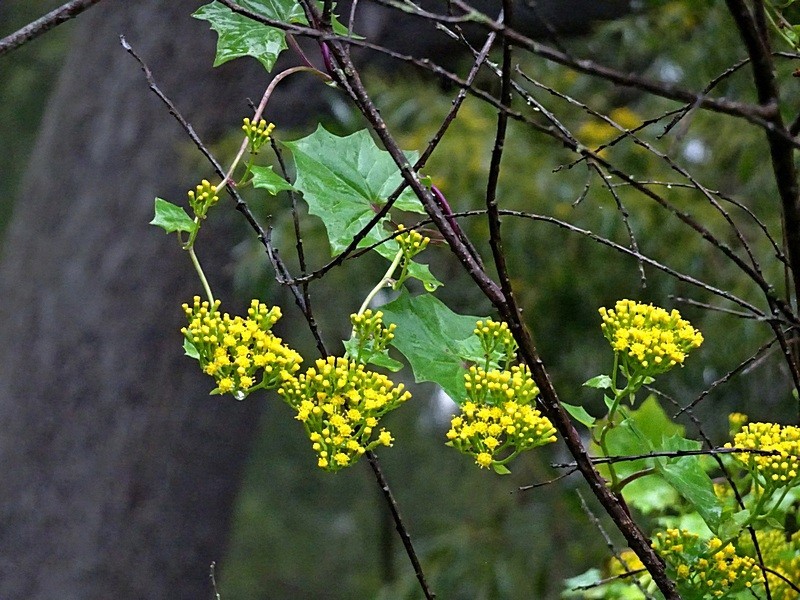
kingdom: Plantae
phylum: Tracheophyta
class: Magnoliopsida
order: Asterales
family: Asteraceae
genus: Delairea
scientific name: Delairea odorata
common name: Cape-ivy
